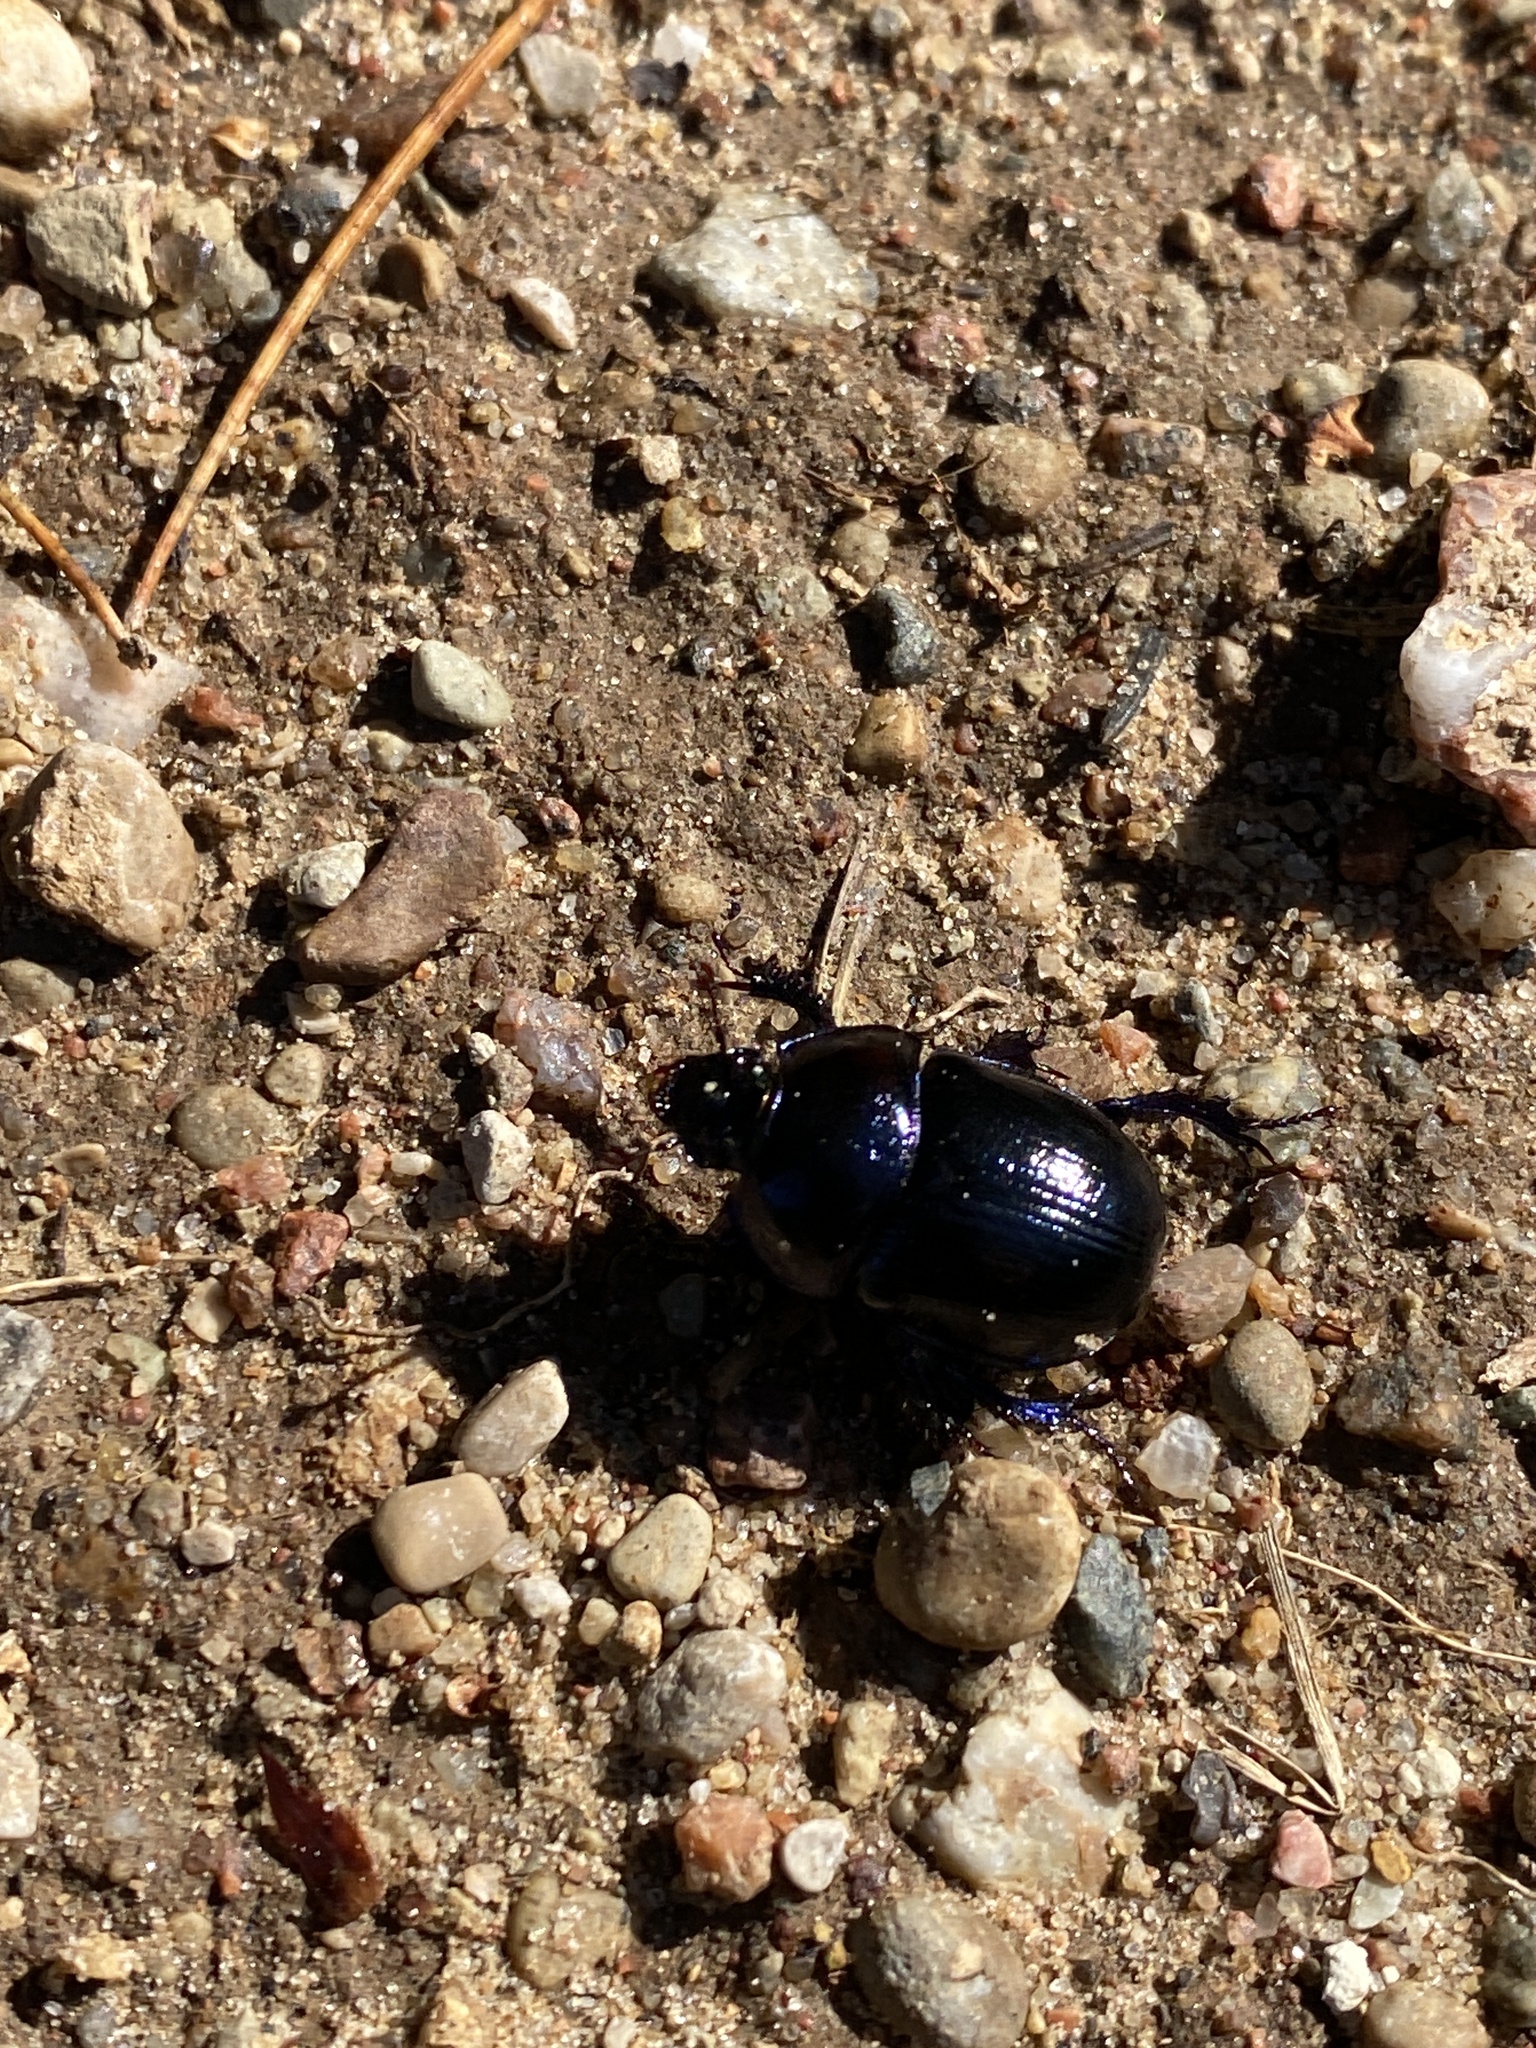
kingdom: Animalia
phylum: Arthropoda
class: Insecta
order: Coleoptera
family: Geotrupidae
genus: Anoplotrupes
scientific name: Anoplotrupes stercorosus
